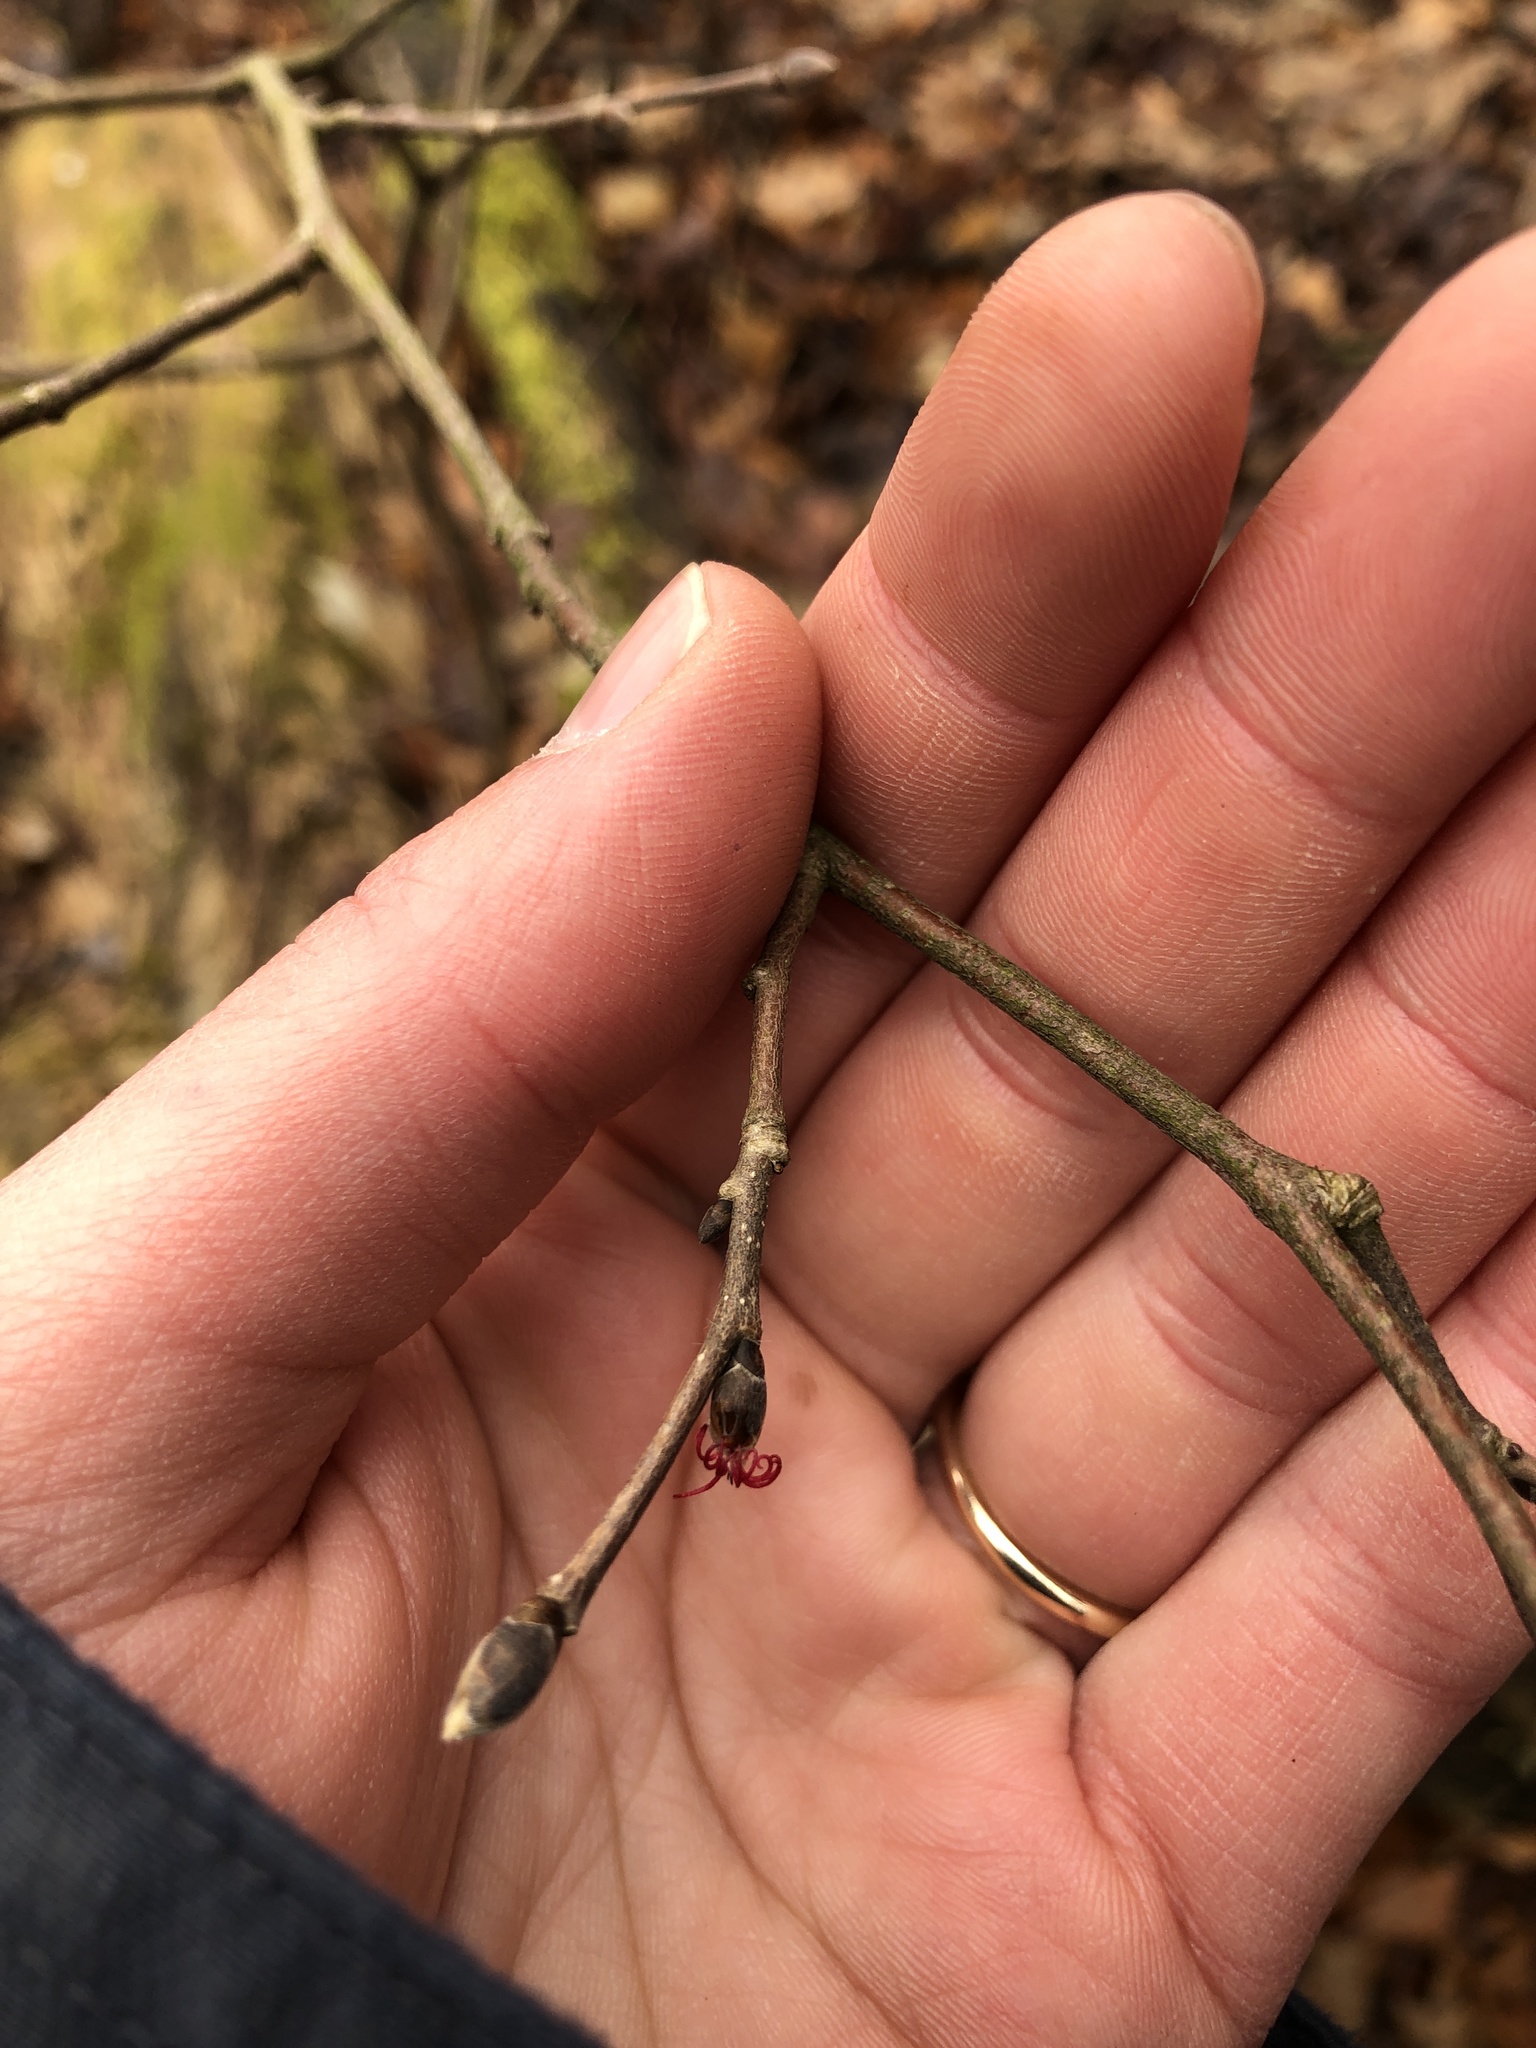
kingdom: Plantae
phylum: Tracheophyta
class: Magnoliopsida
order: Fagales
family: Betulaceae
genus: Corylus
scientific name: Corylus cornuta
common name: Beaked hazel
